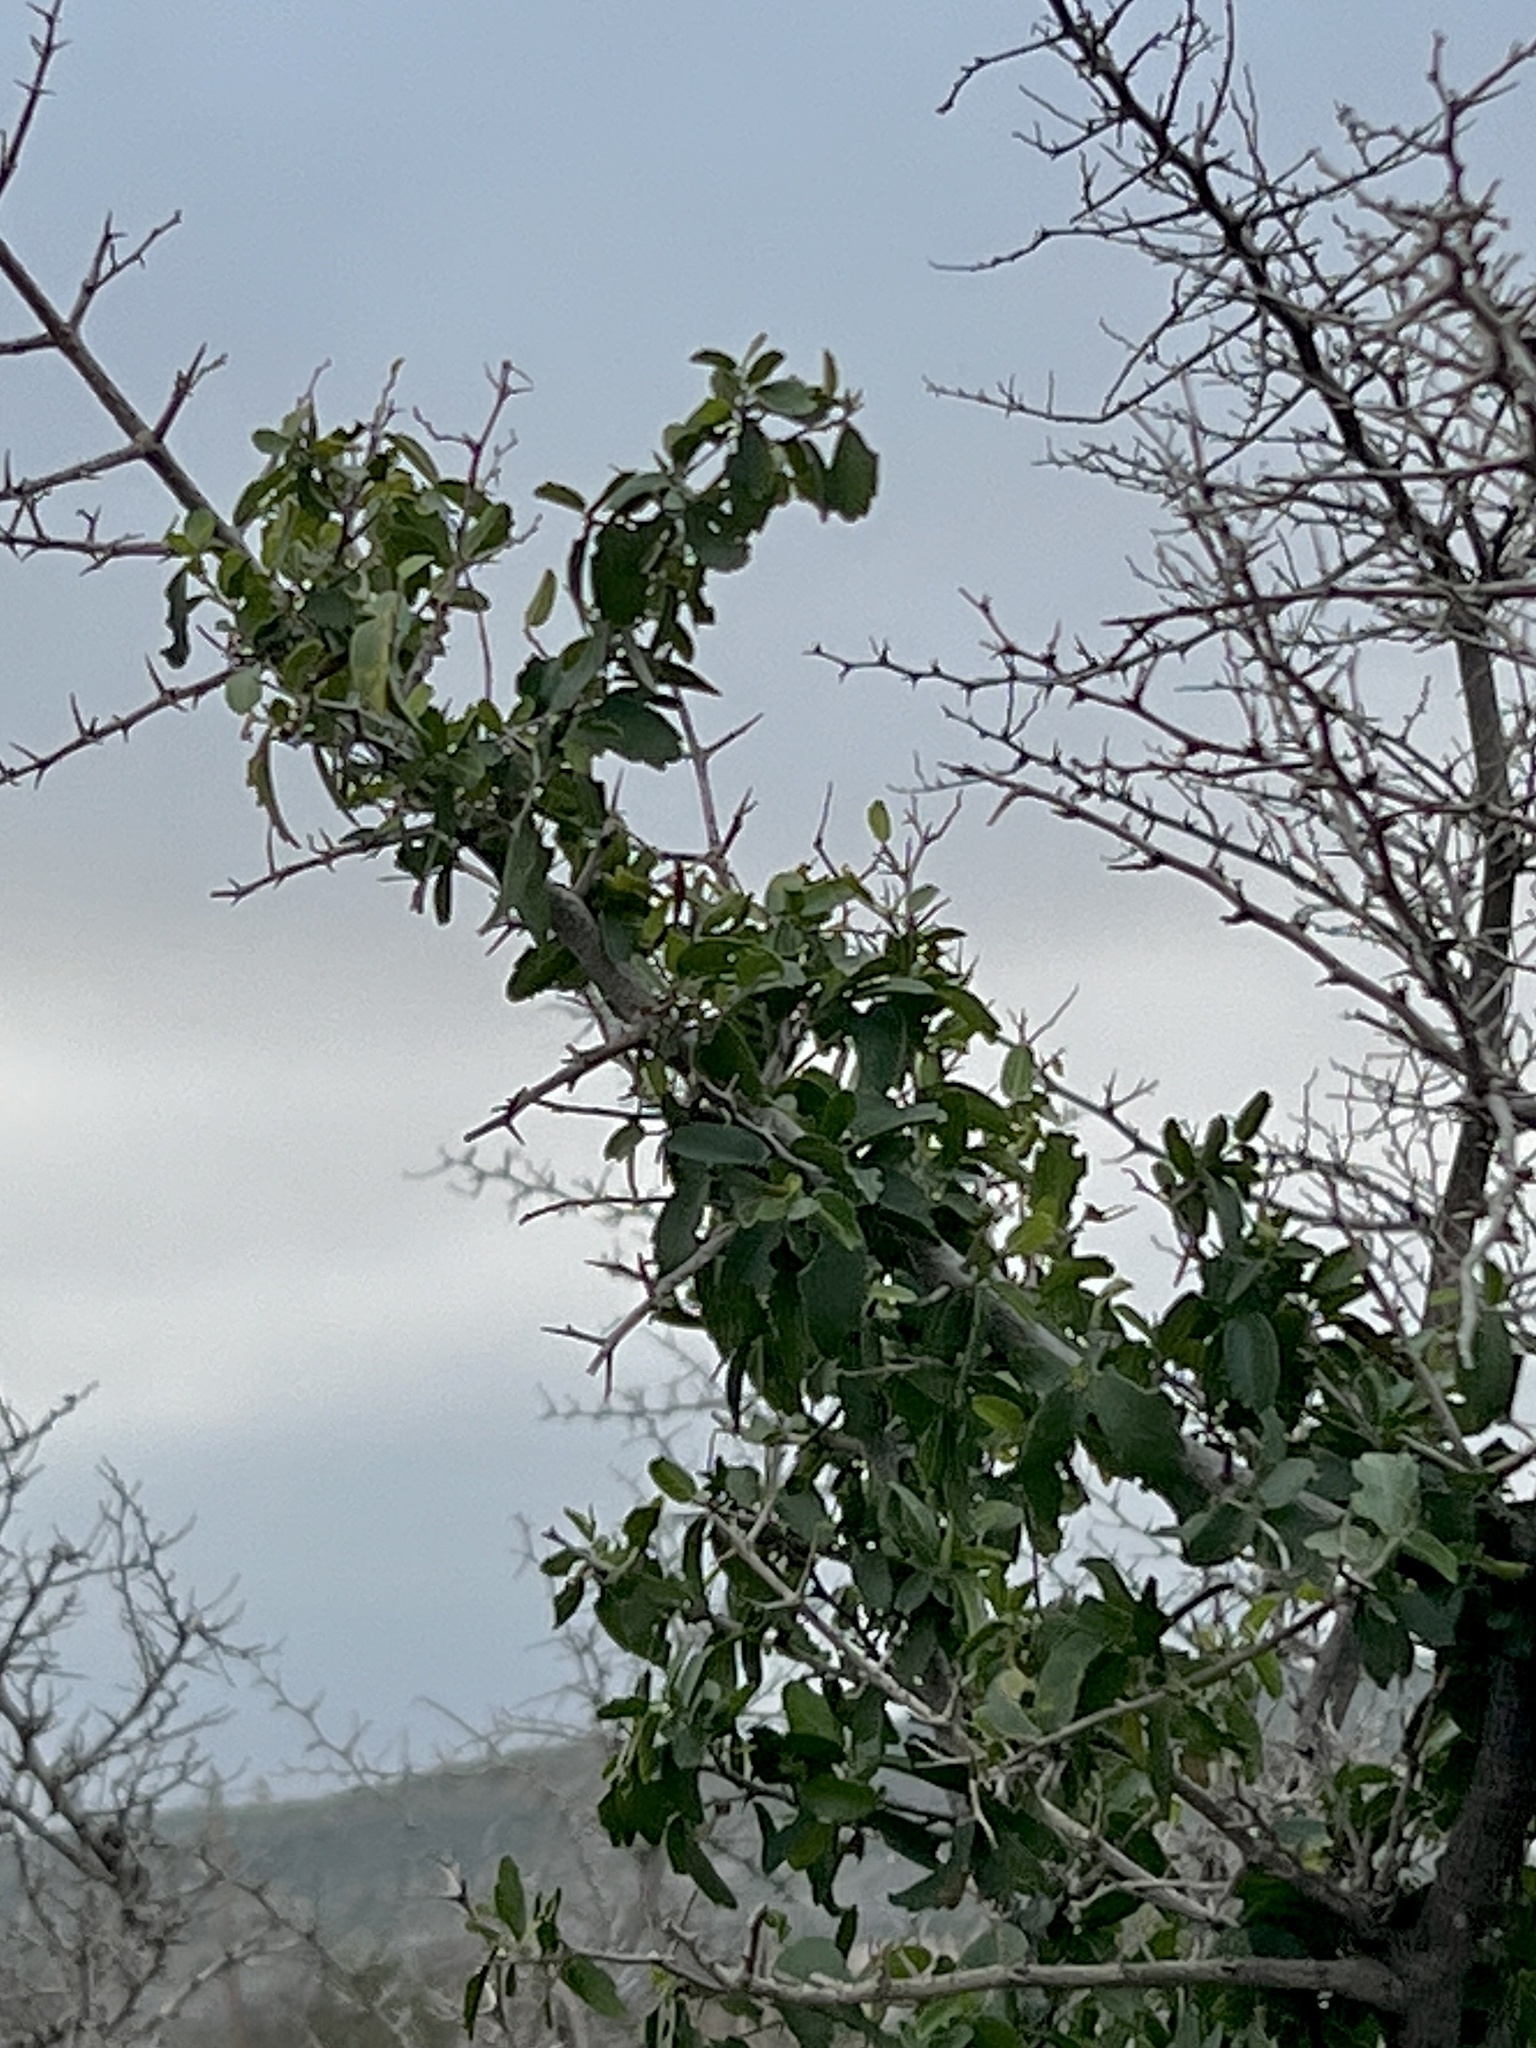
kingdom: Plantae
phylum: Tracheophyta
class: Magnoliopsida
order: Rosales
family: Cannabaceae
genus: Celtis
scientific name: Celtis pallida
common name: Desert hackberry
